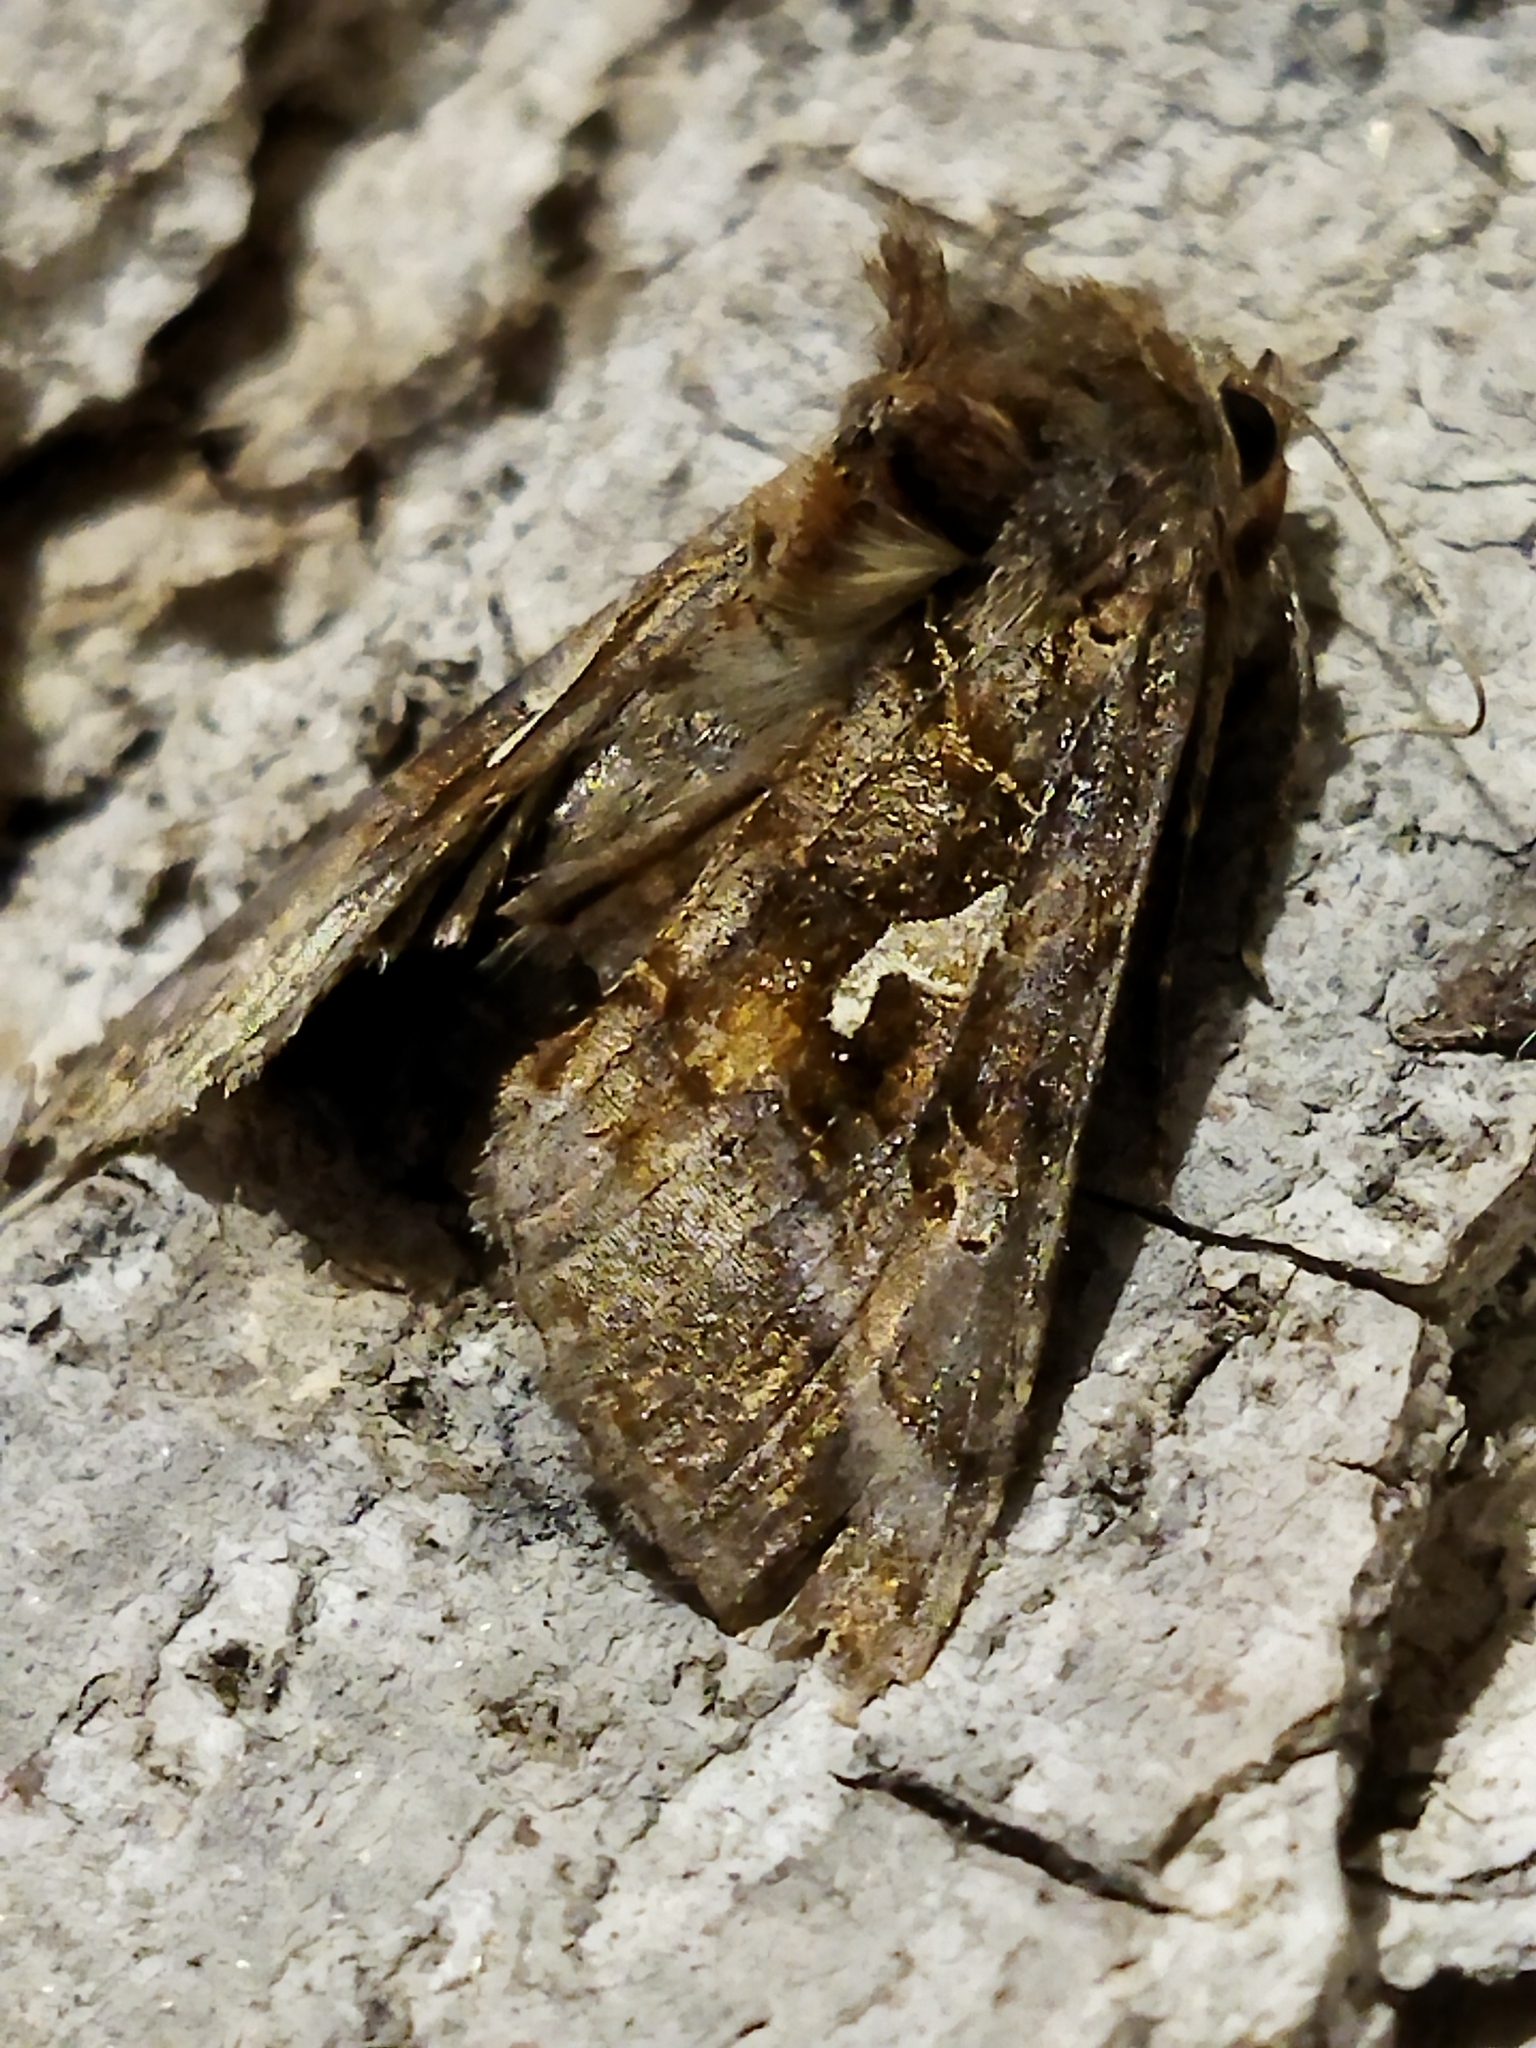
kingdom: Animalia
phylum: Arthropoda
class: Insecta
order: Lepidoptera
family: Noctuidae
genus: Autographa
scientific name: Autographa gamma
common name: Silver y
